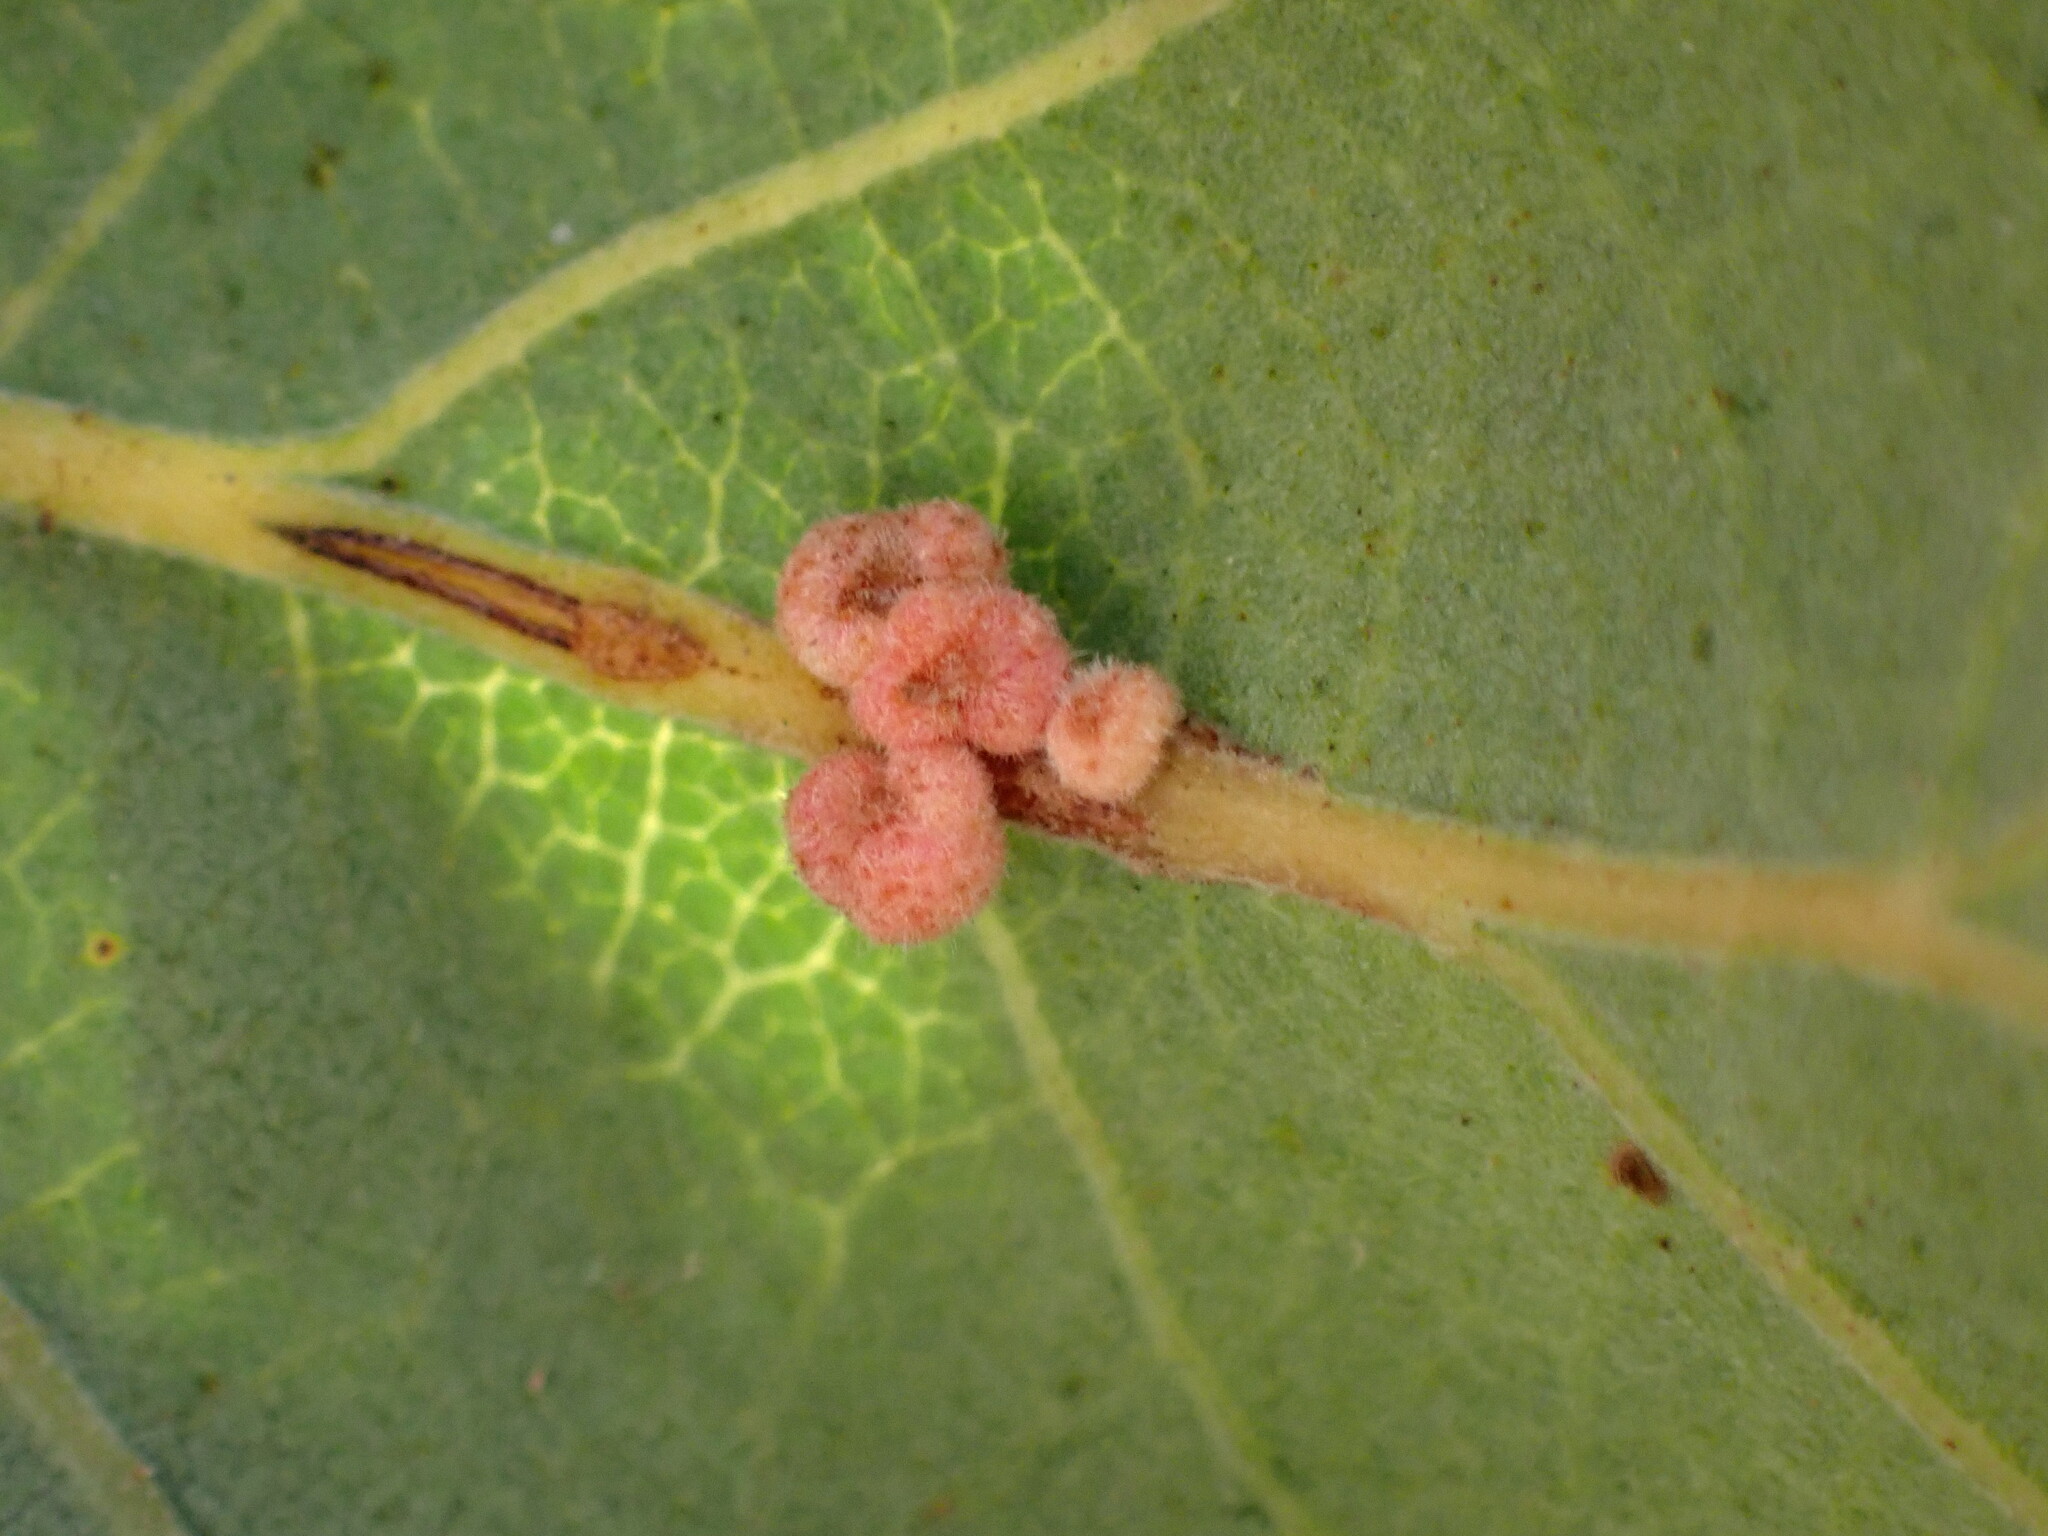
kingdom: Animalia
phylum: Arthropoda
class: Insecta
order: Hymenoptera
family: Cynipidae
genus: Andricus
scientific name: Andricus
